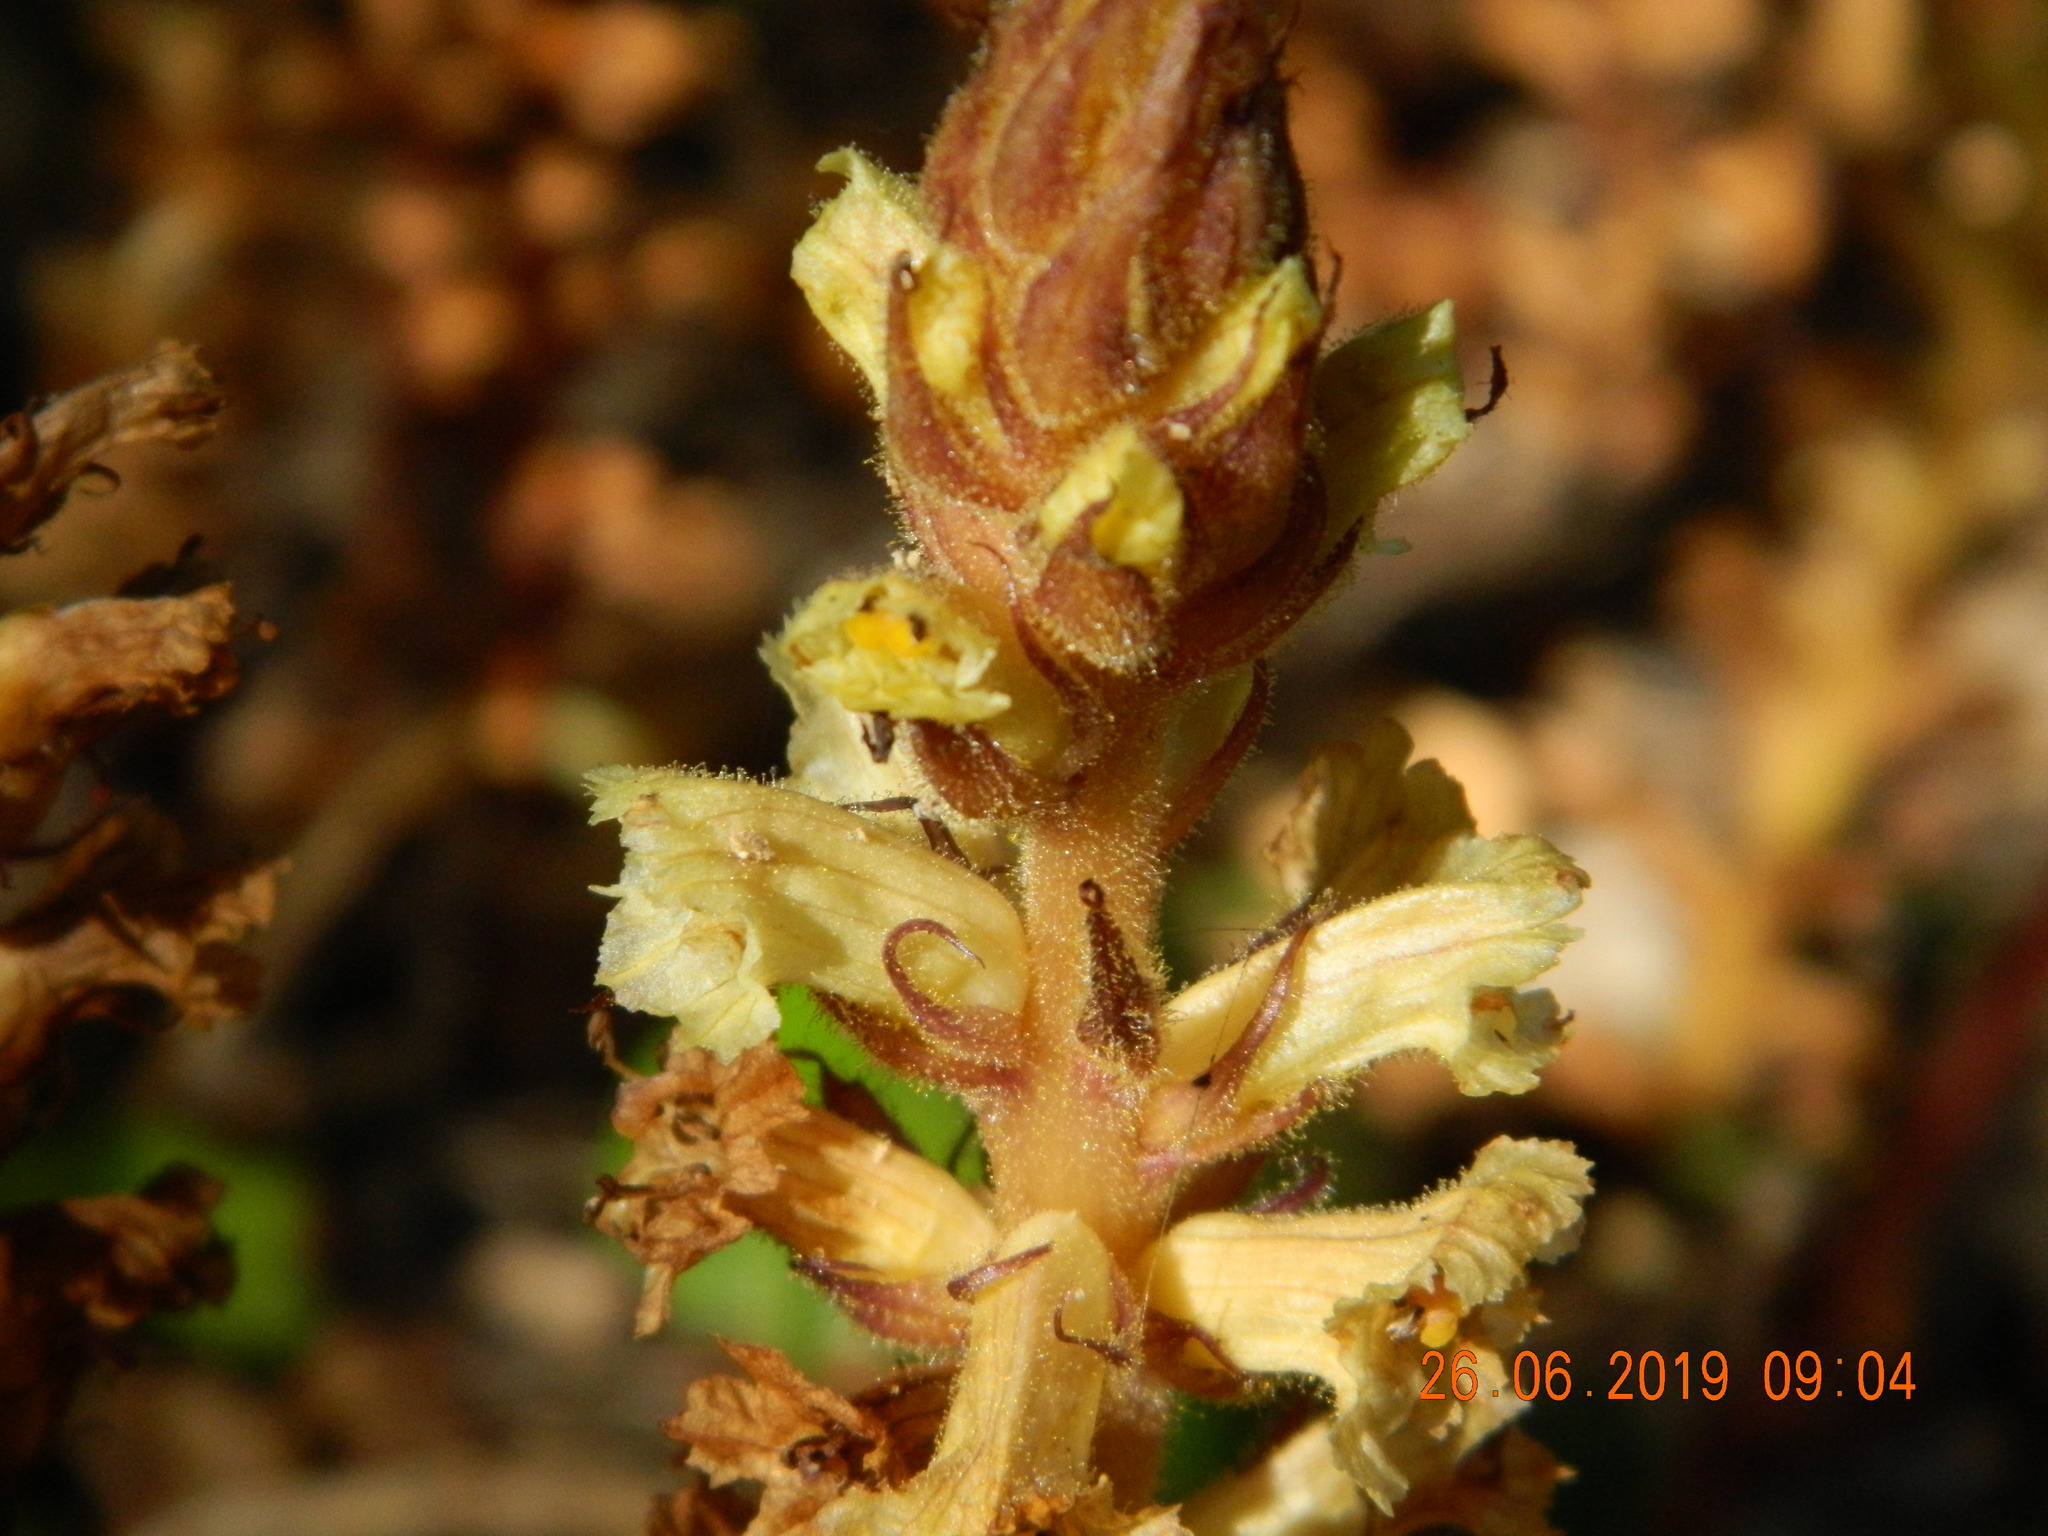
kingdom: Plantae
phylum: Tracheophyta
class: Magnoliopsida
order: Lamiales
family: Orobanchaceae
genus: Orobanche
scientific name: Orobanche hederae
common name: Ivy broomrape
